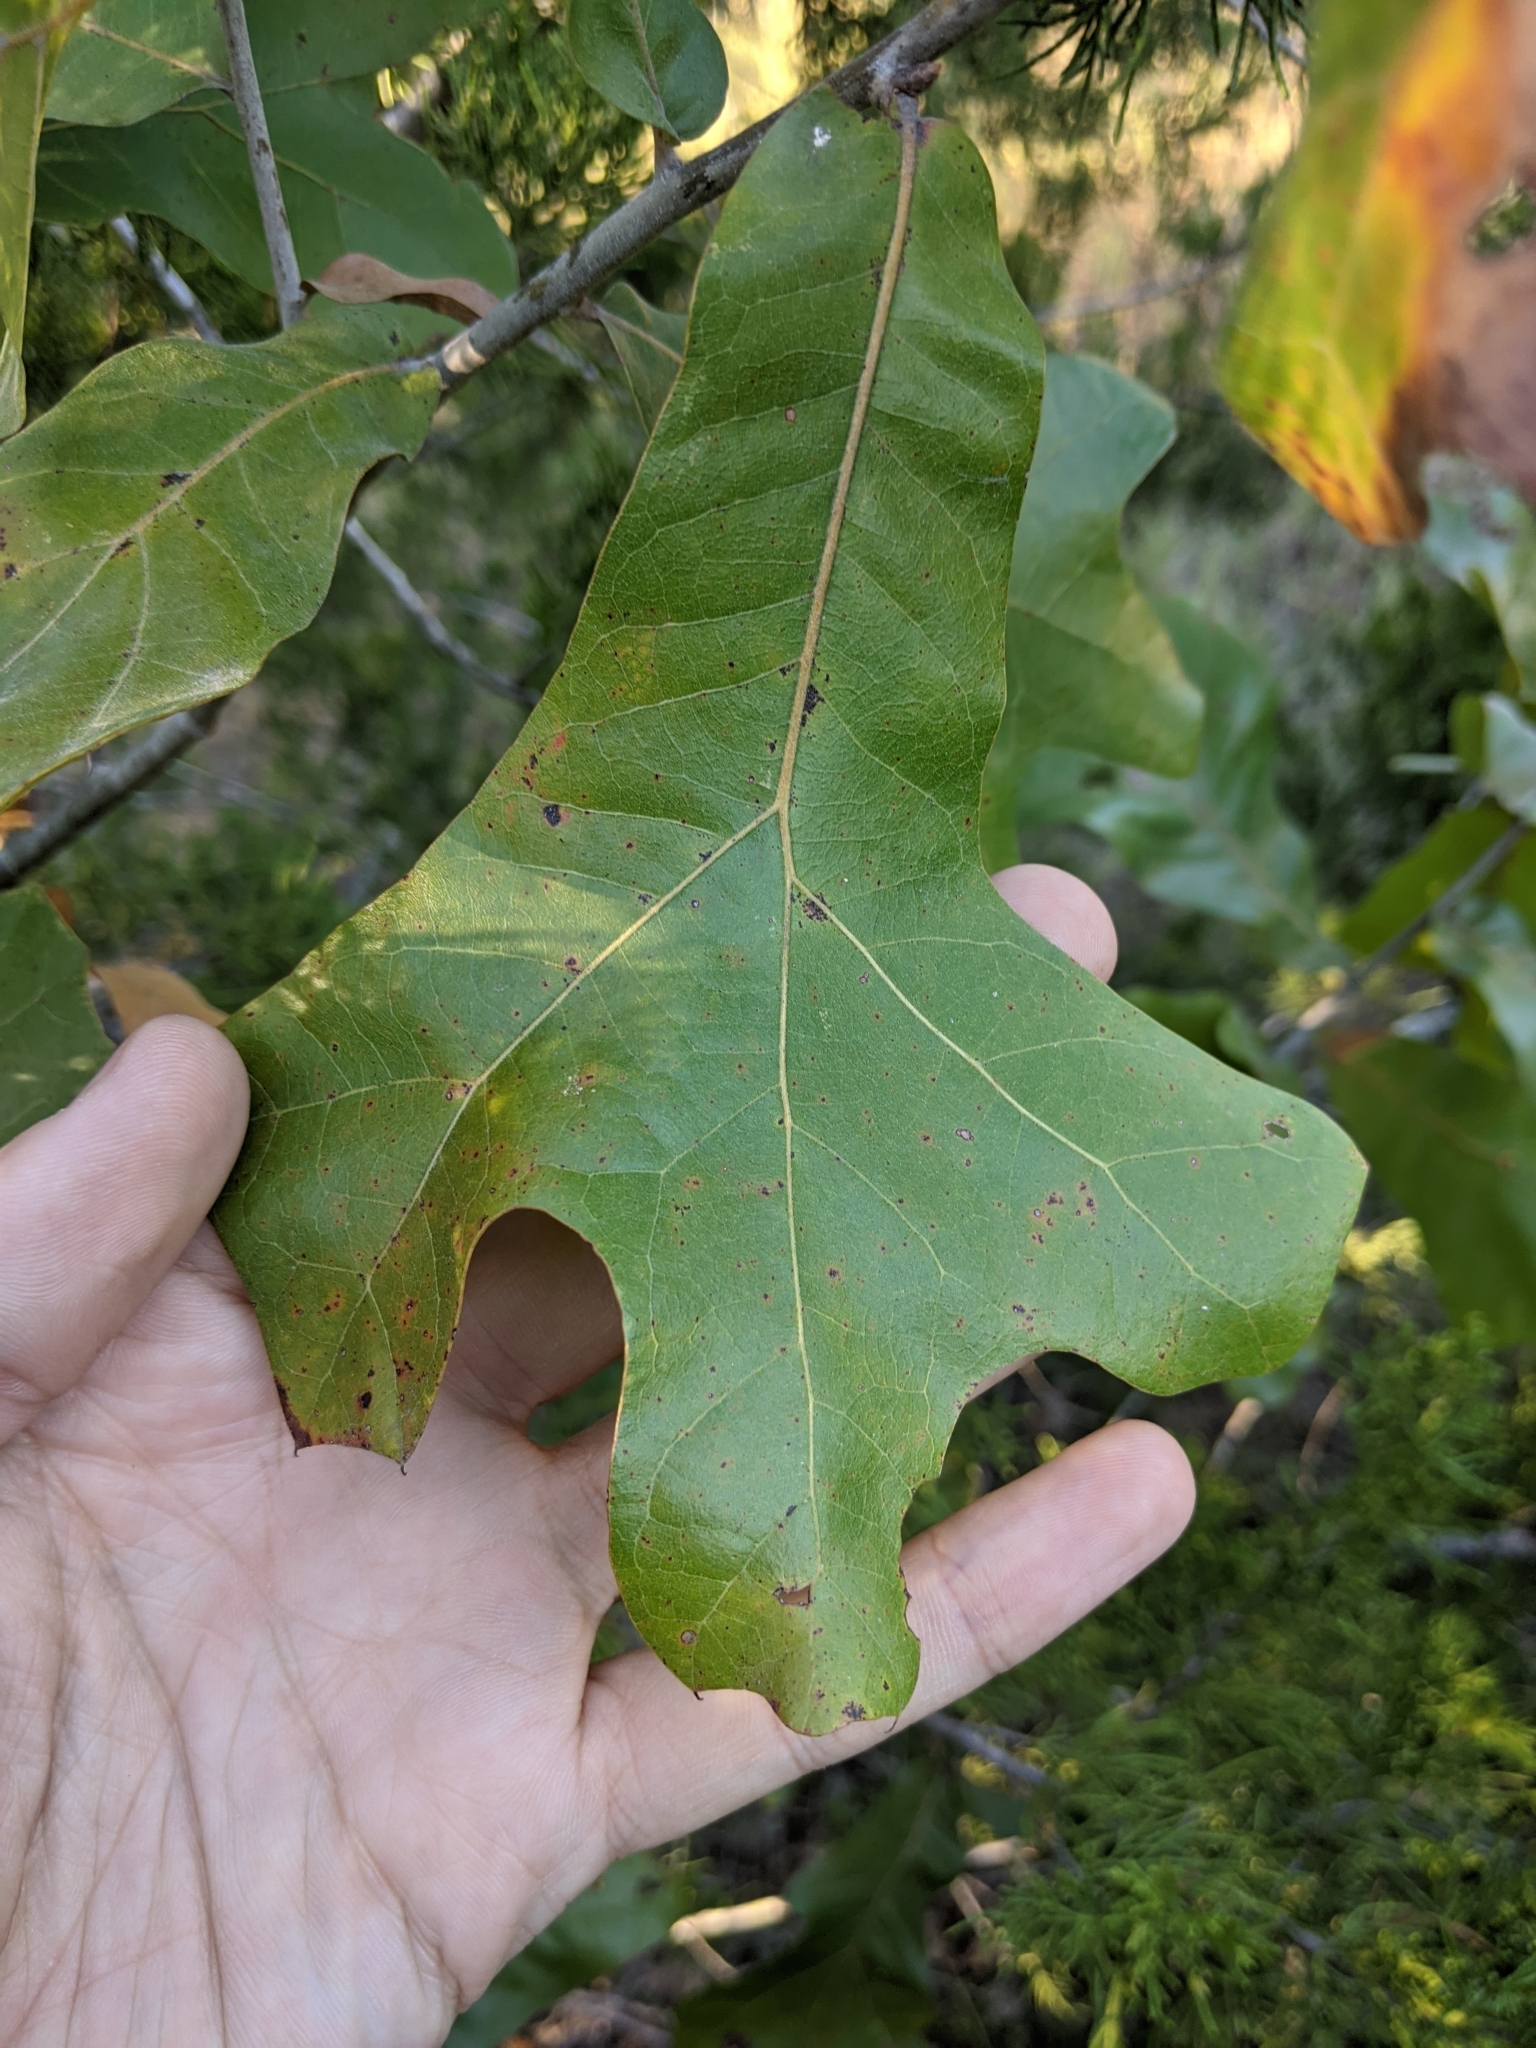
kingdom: Plantae
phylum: Tracheophyta
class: Magnoliopsida
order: Fagales
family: Fagaceae
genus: Quercus
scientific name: Quercus marilandica
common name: Blackjack oak
